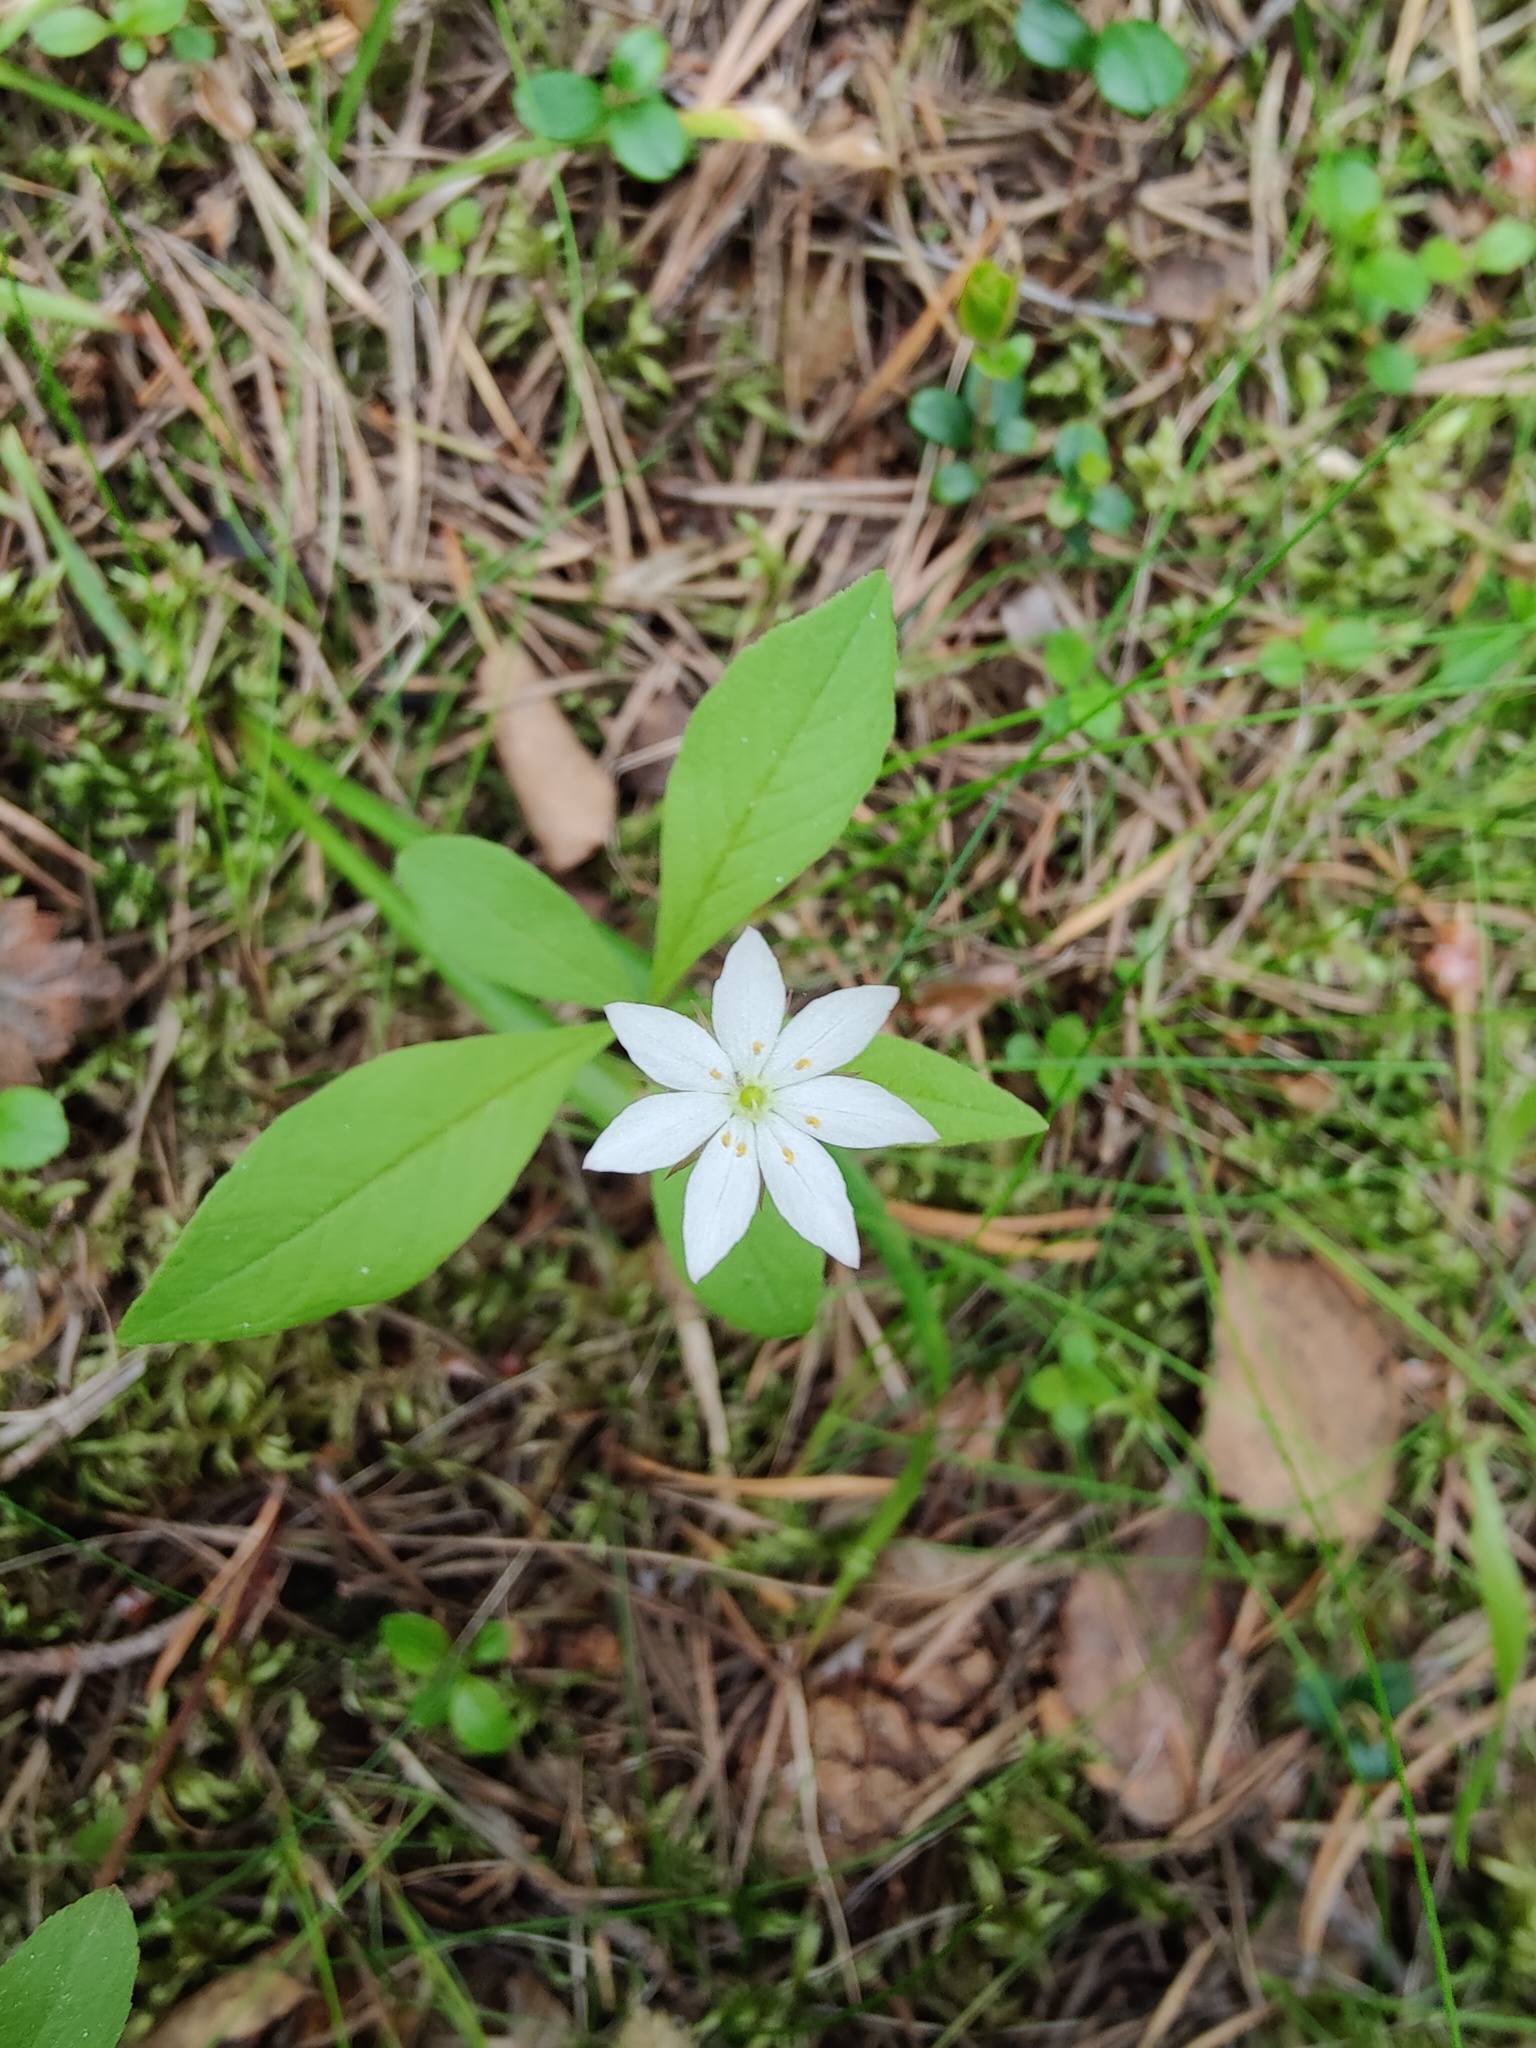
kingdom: Plantae
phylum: Tracheophyta
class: Magnoliopsida
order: Ericales
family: Primulaceae
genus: Lysimachia
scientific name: Lysimachia europaea
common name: Arctic starflower
